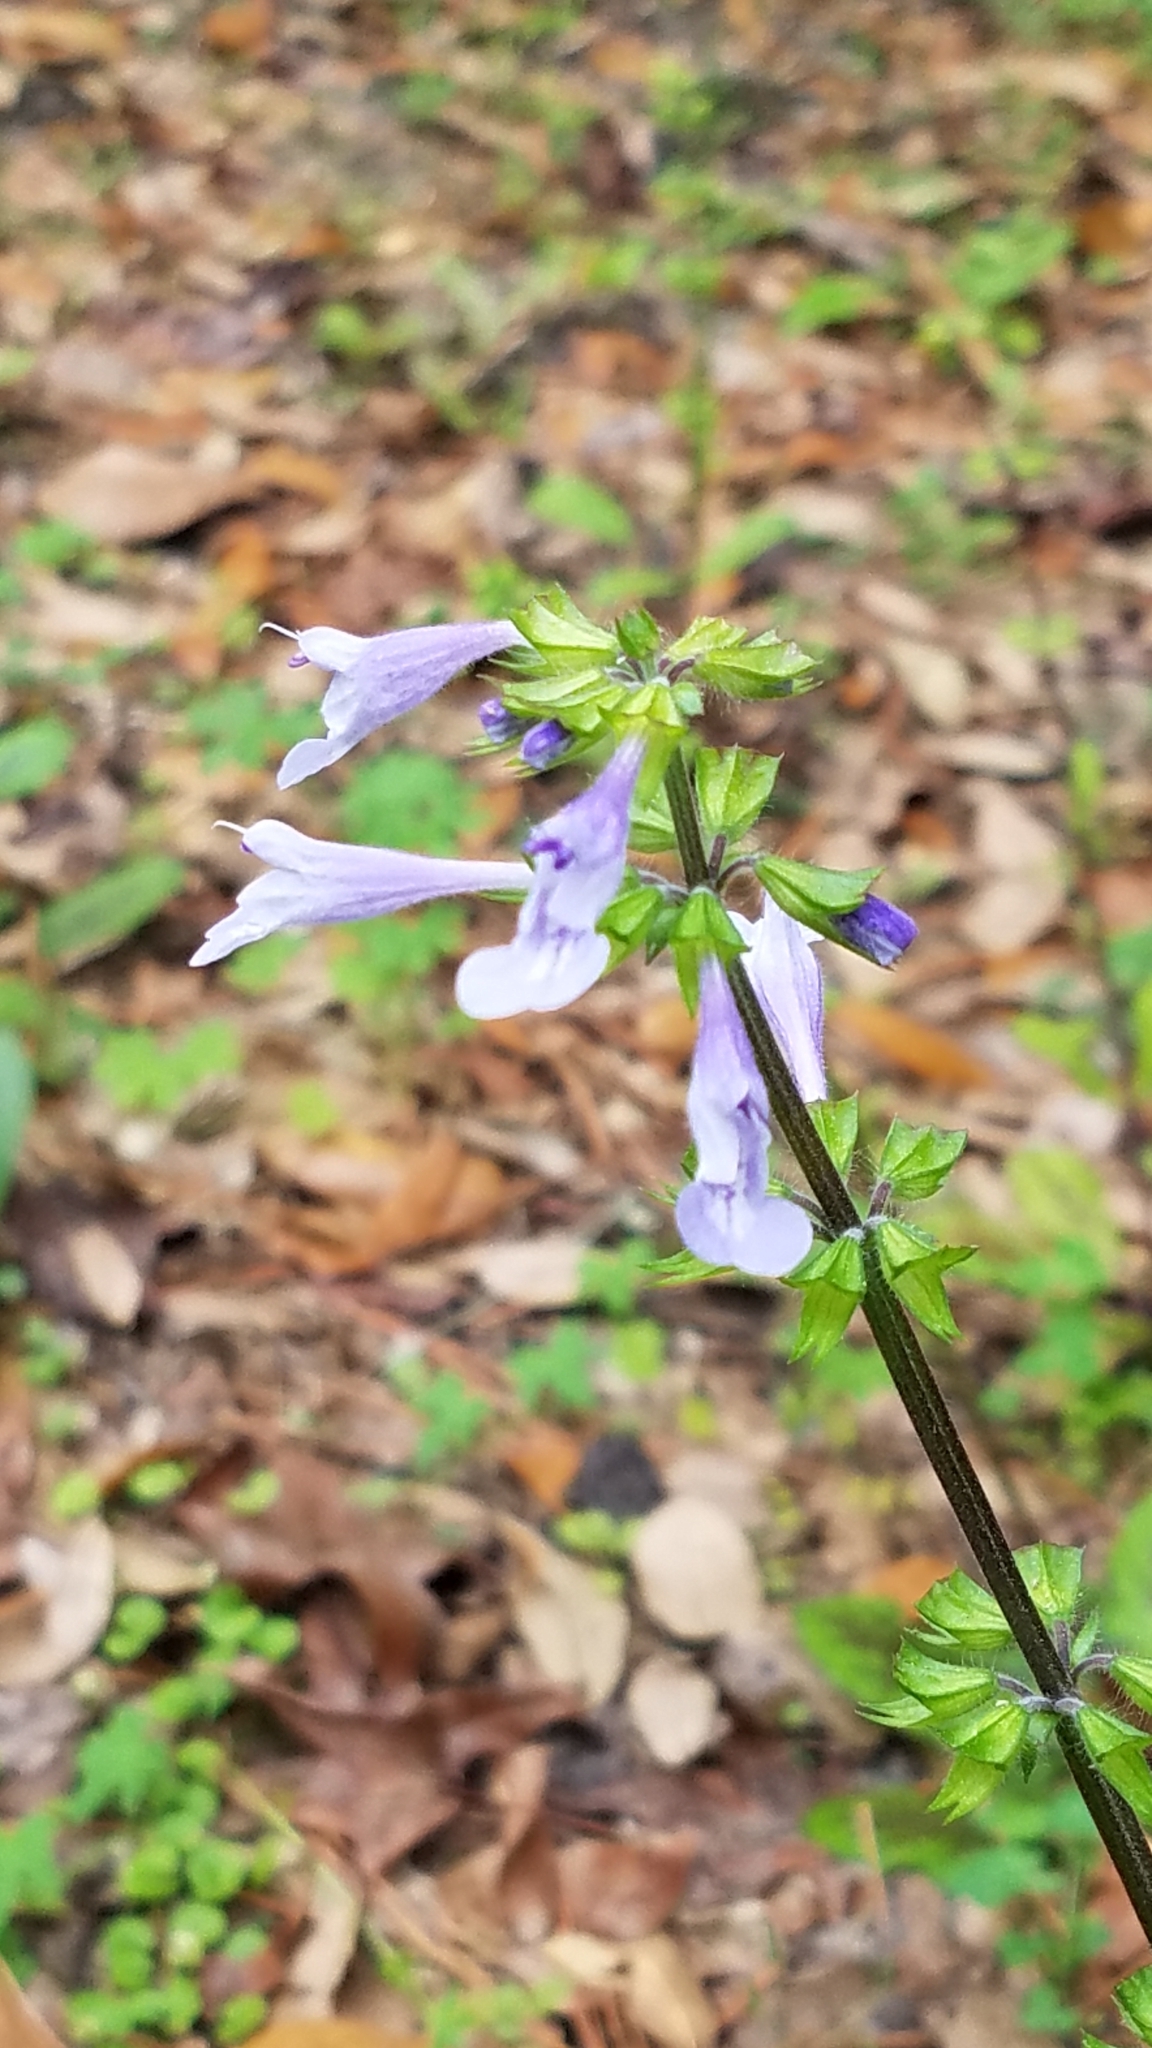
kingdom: Plantae
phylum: Tracheophyta
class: Magnoliopsida
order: Lamiales
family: Lamiaceae
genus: Salvia
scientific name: Salvia lyrata
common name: Cancerweed
